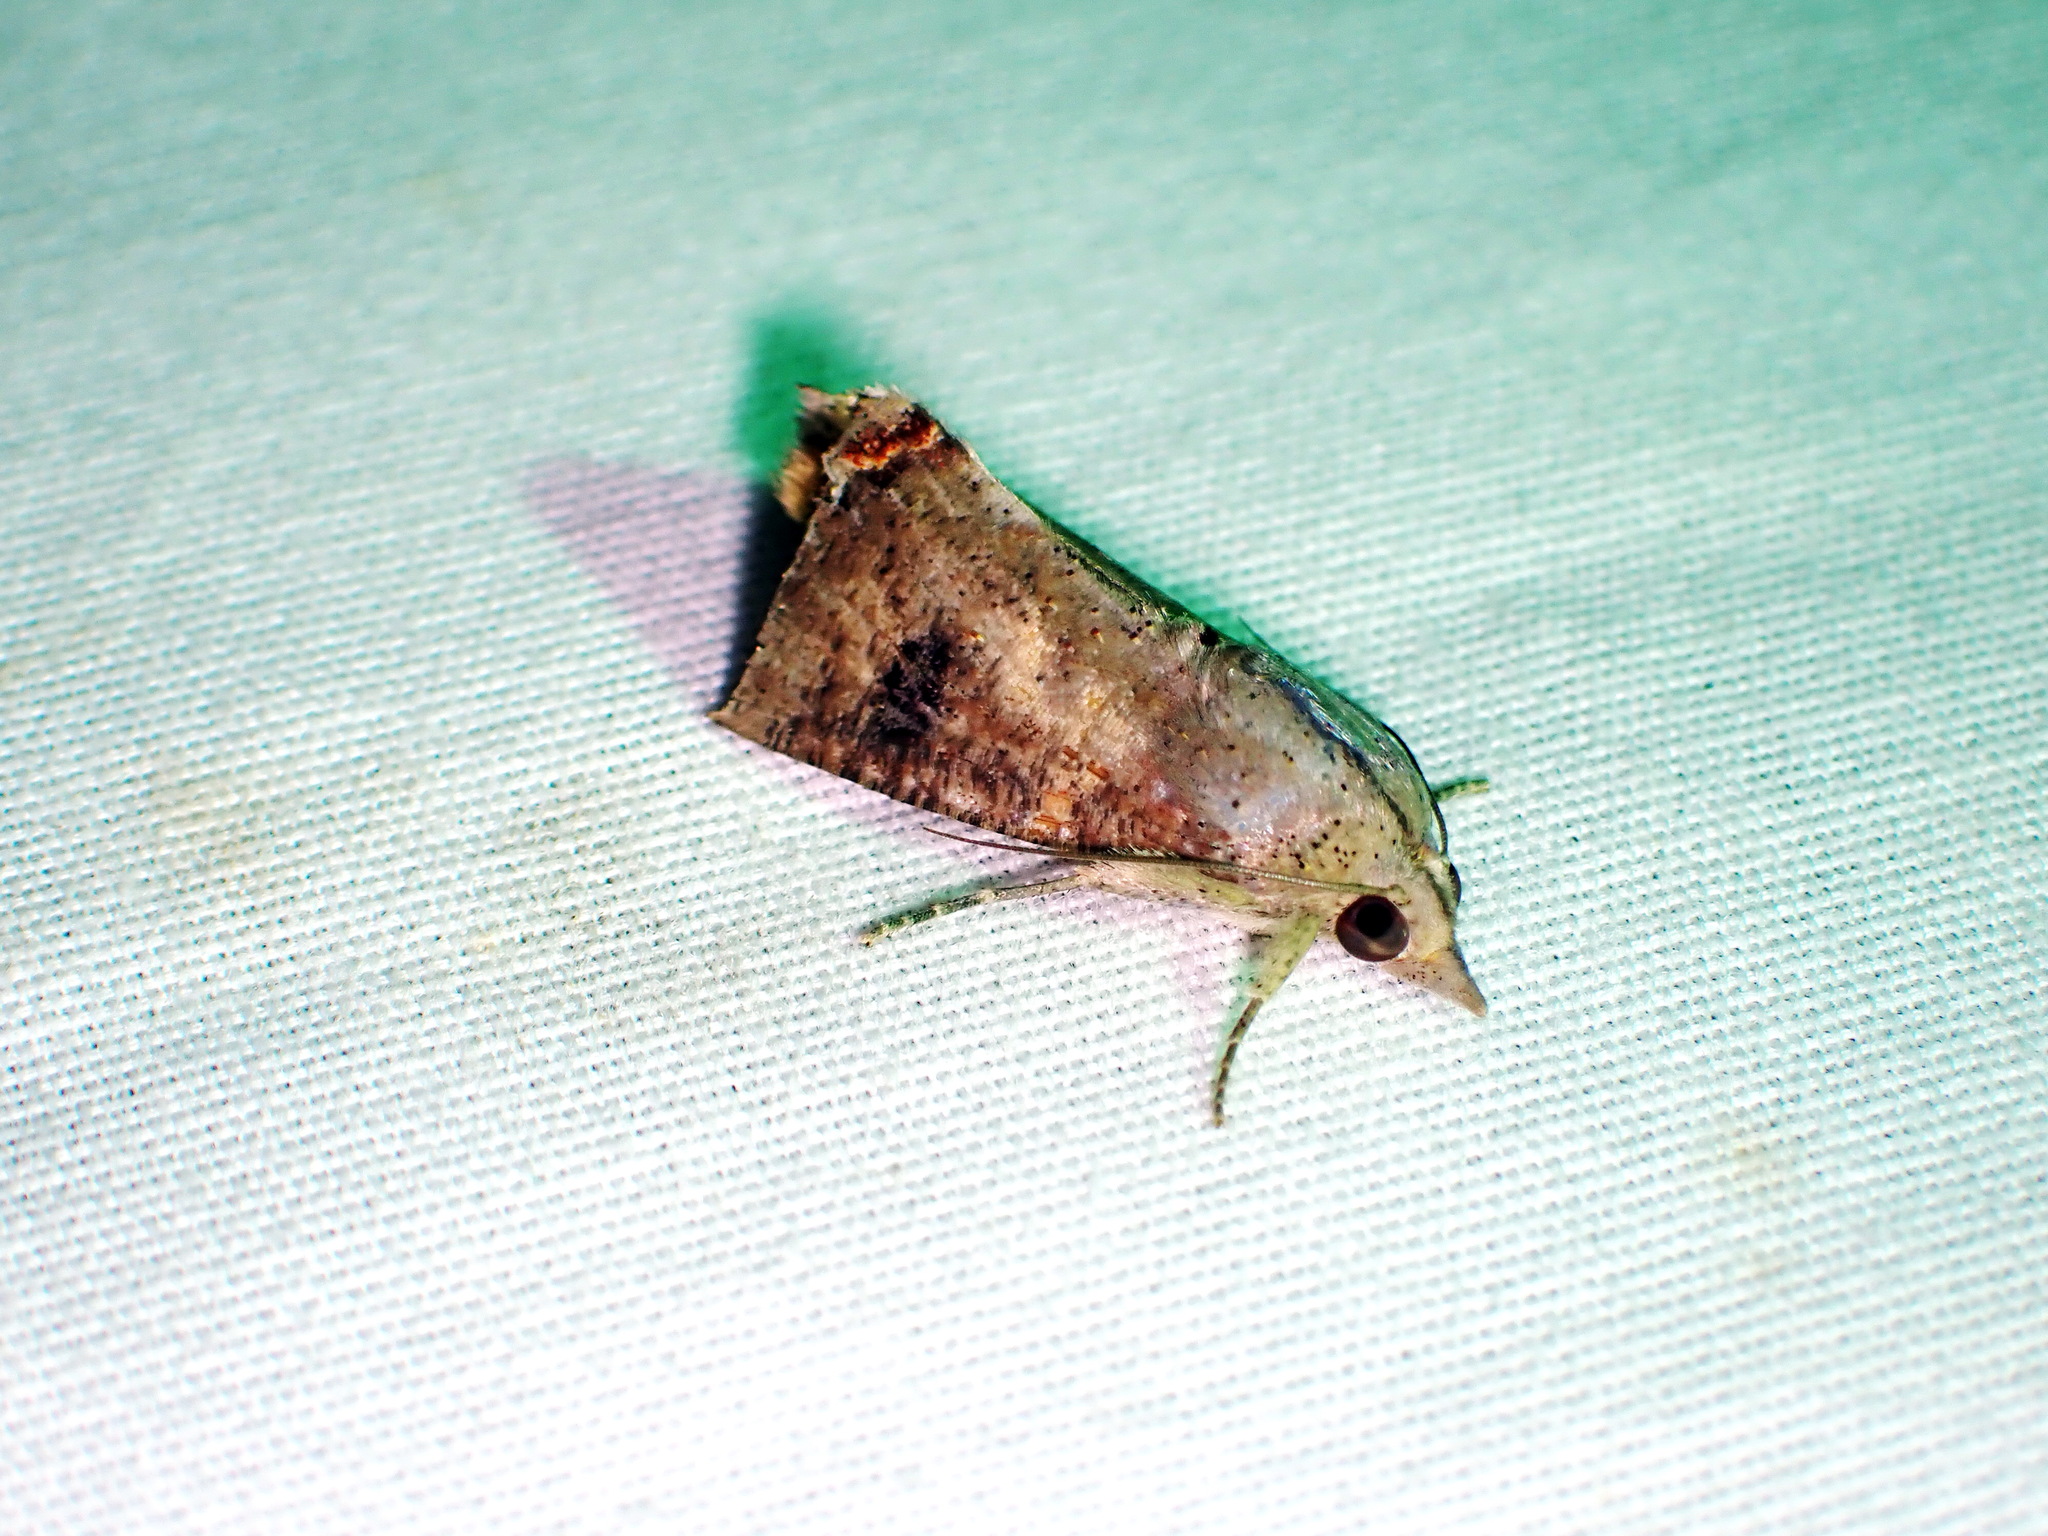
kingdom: Animalia
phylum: Arthropoda
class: Insecta
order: Lepidoptera
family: Erebidae
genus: Hypocala
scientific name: Hypocala andremona
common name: Hypocala moth
